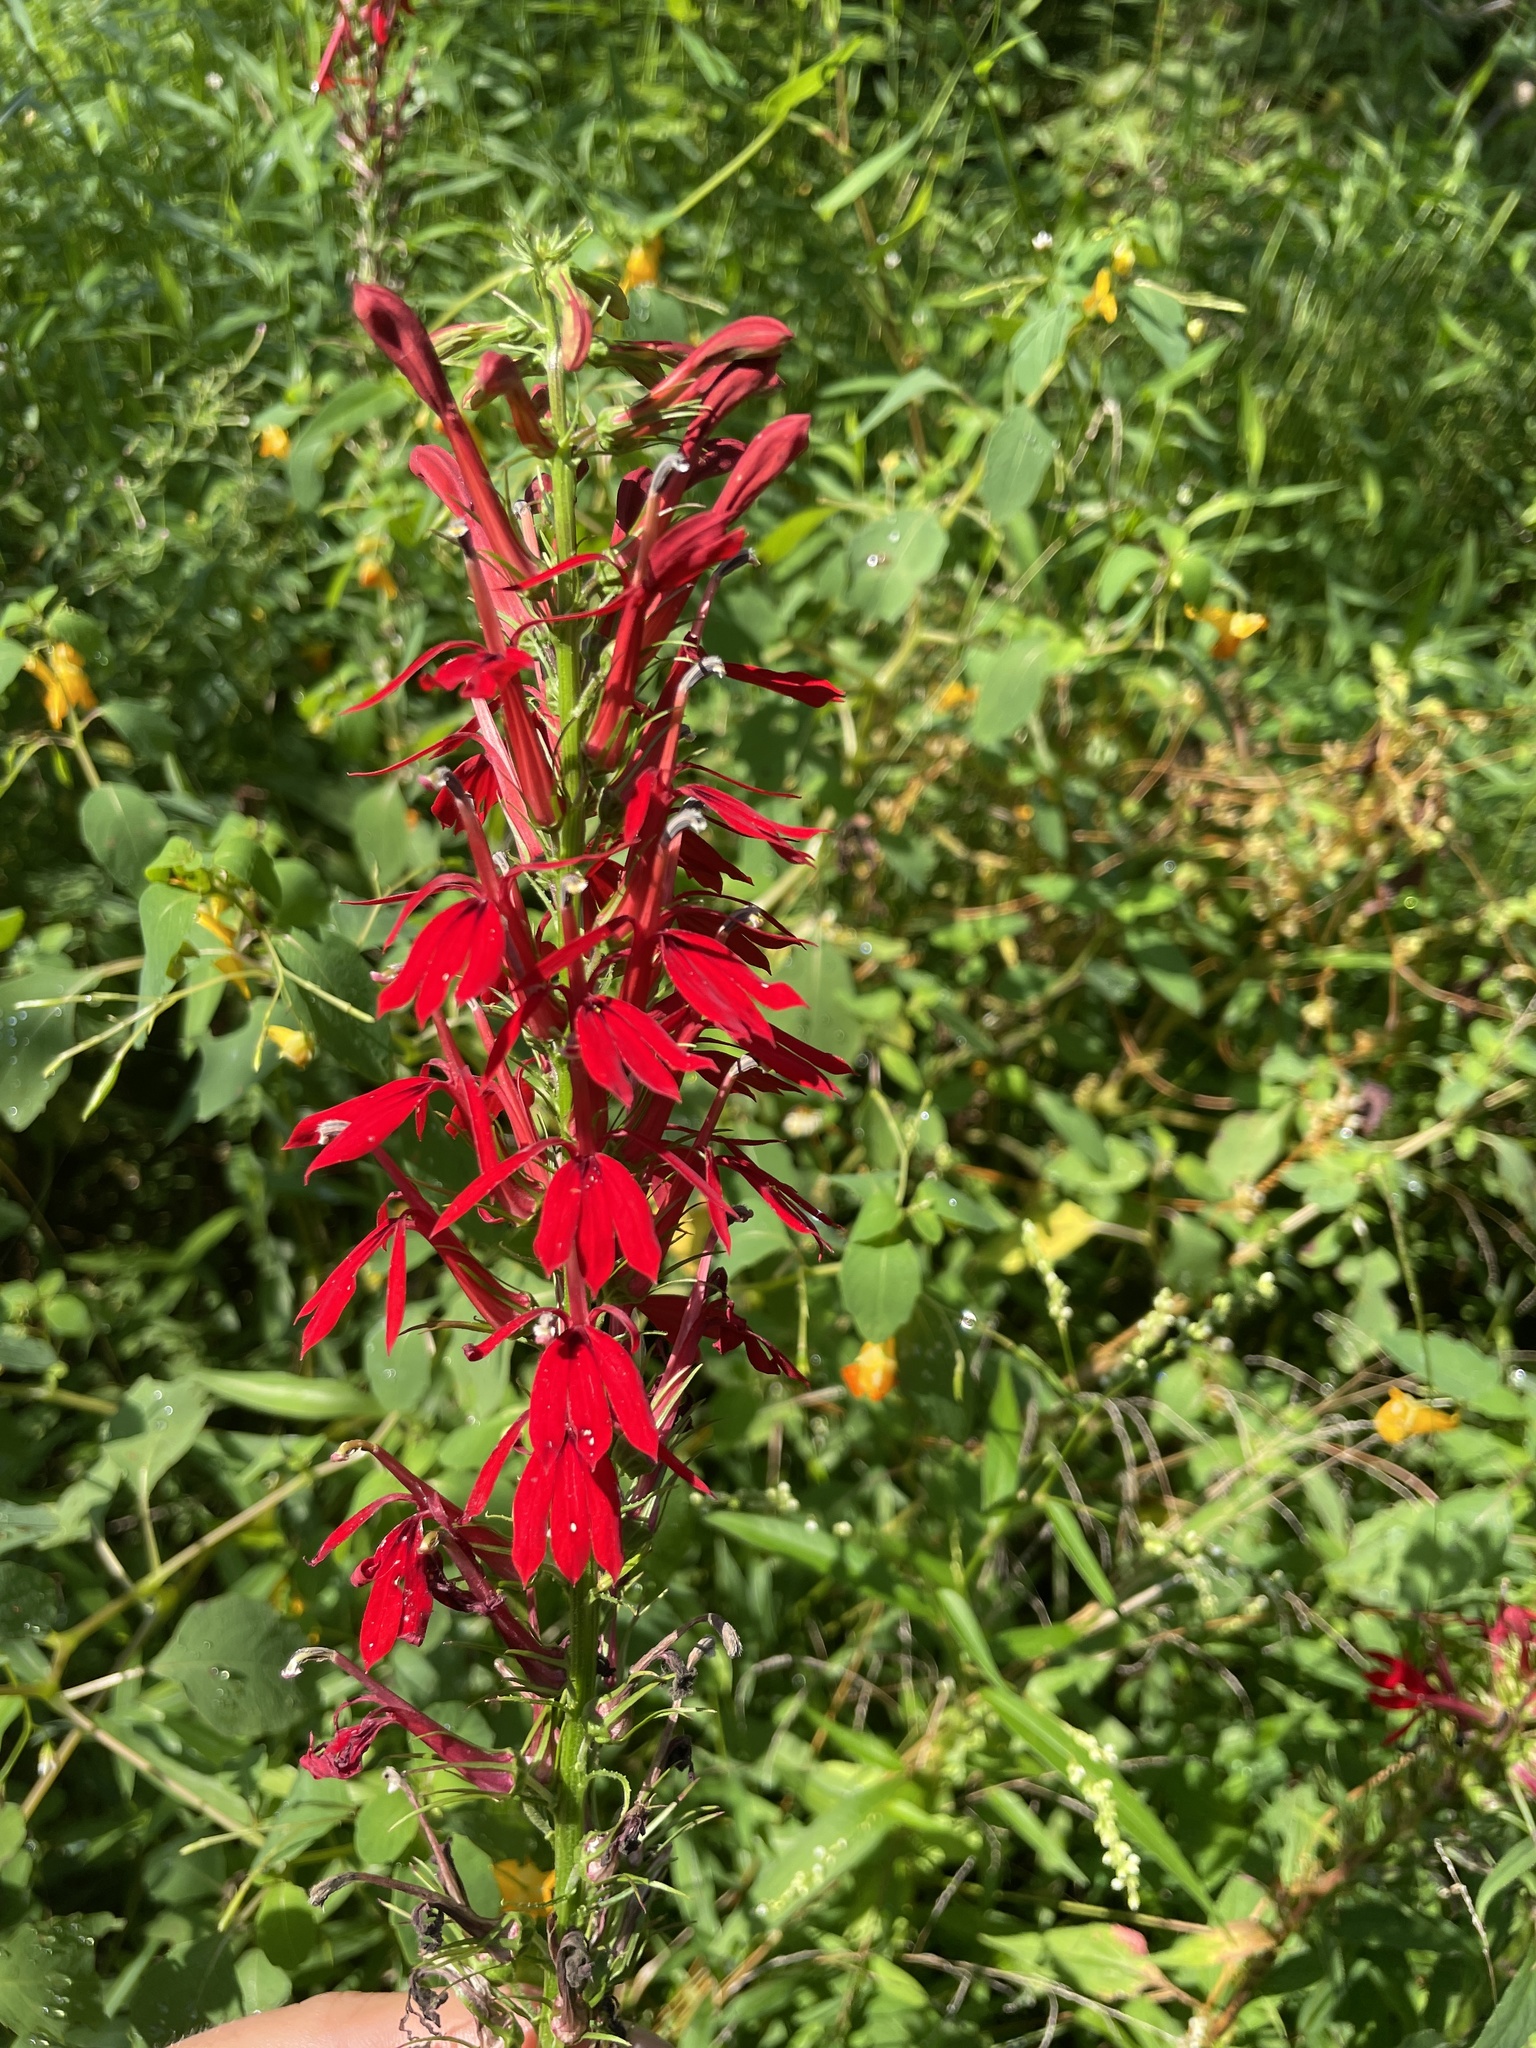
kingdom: Plantae
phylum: Tracheophyta
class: Magnoliopsida
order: Asterales
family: Campanulaceae
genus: Lobelia
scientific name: Lobelia cardinalis
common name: Cardinal flower
